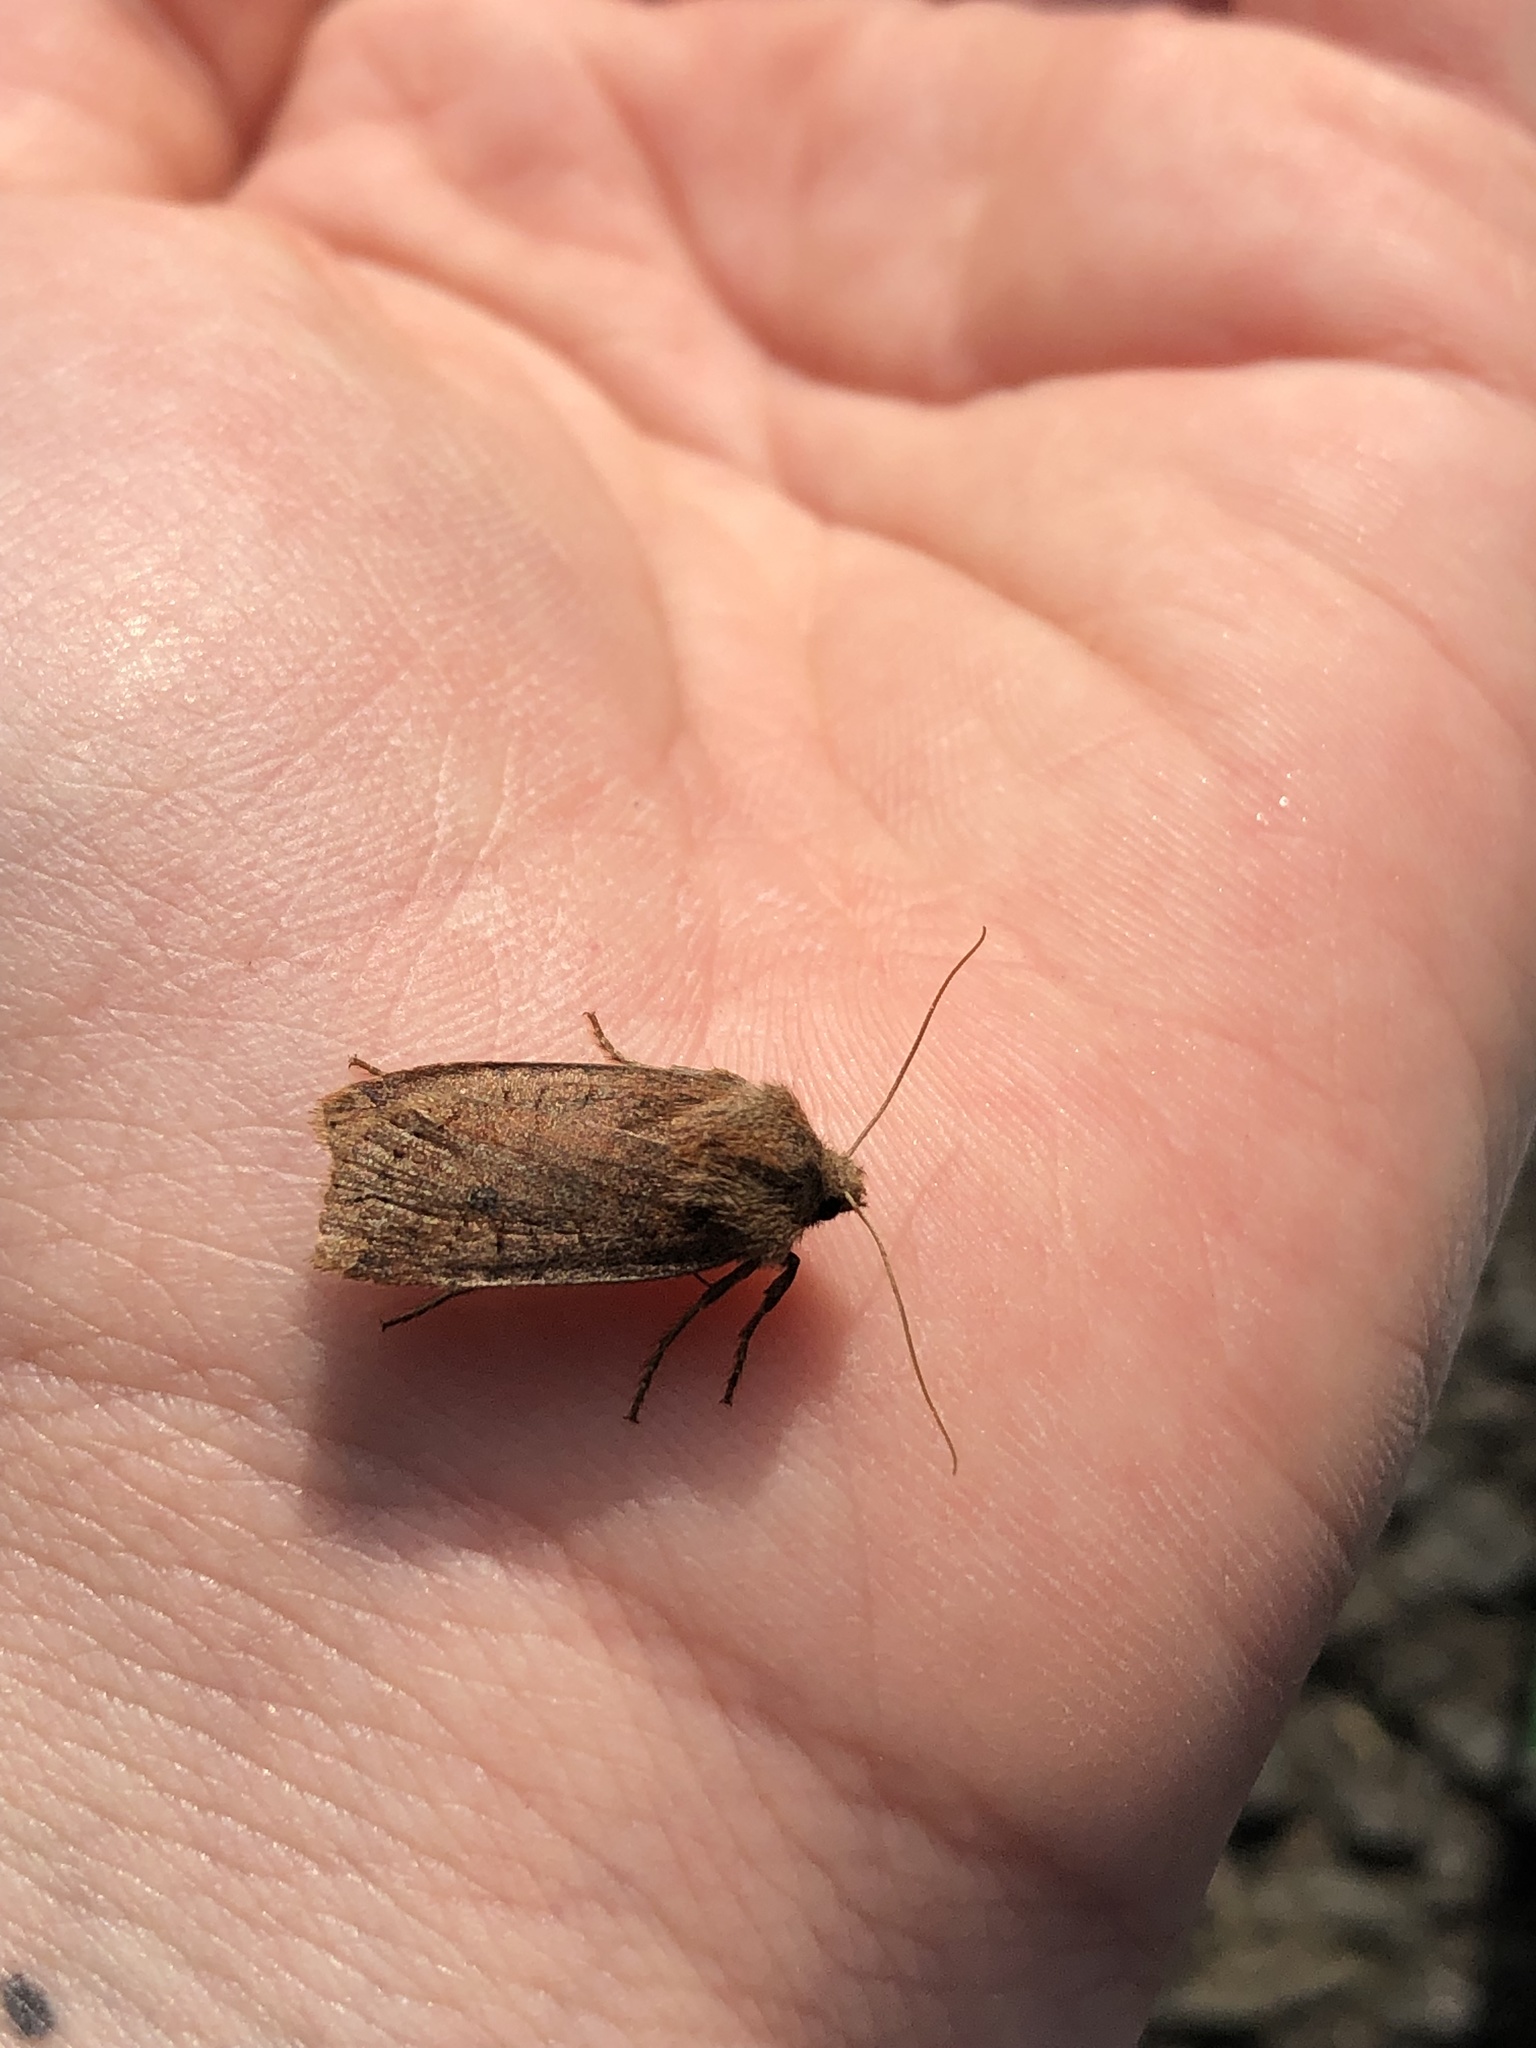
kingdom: Animalia
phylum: Arthropoda
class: Insecta
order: Lepidoptera
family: Noctuidae
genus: Conistra
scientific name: Conistra vaccinii
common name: Chestnut
